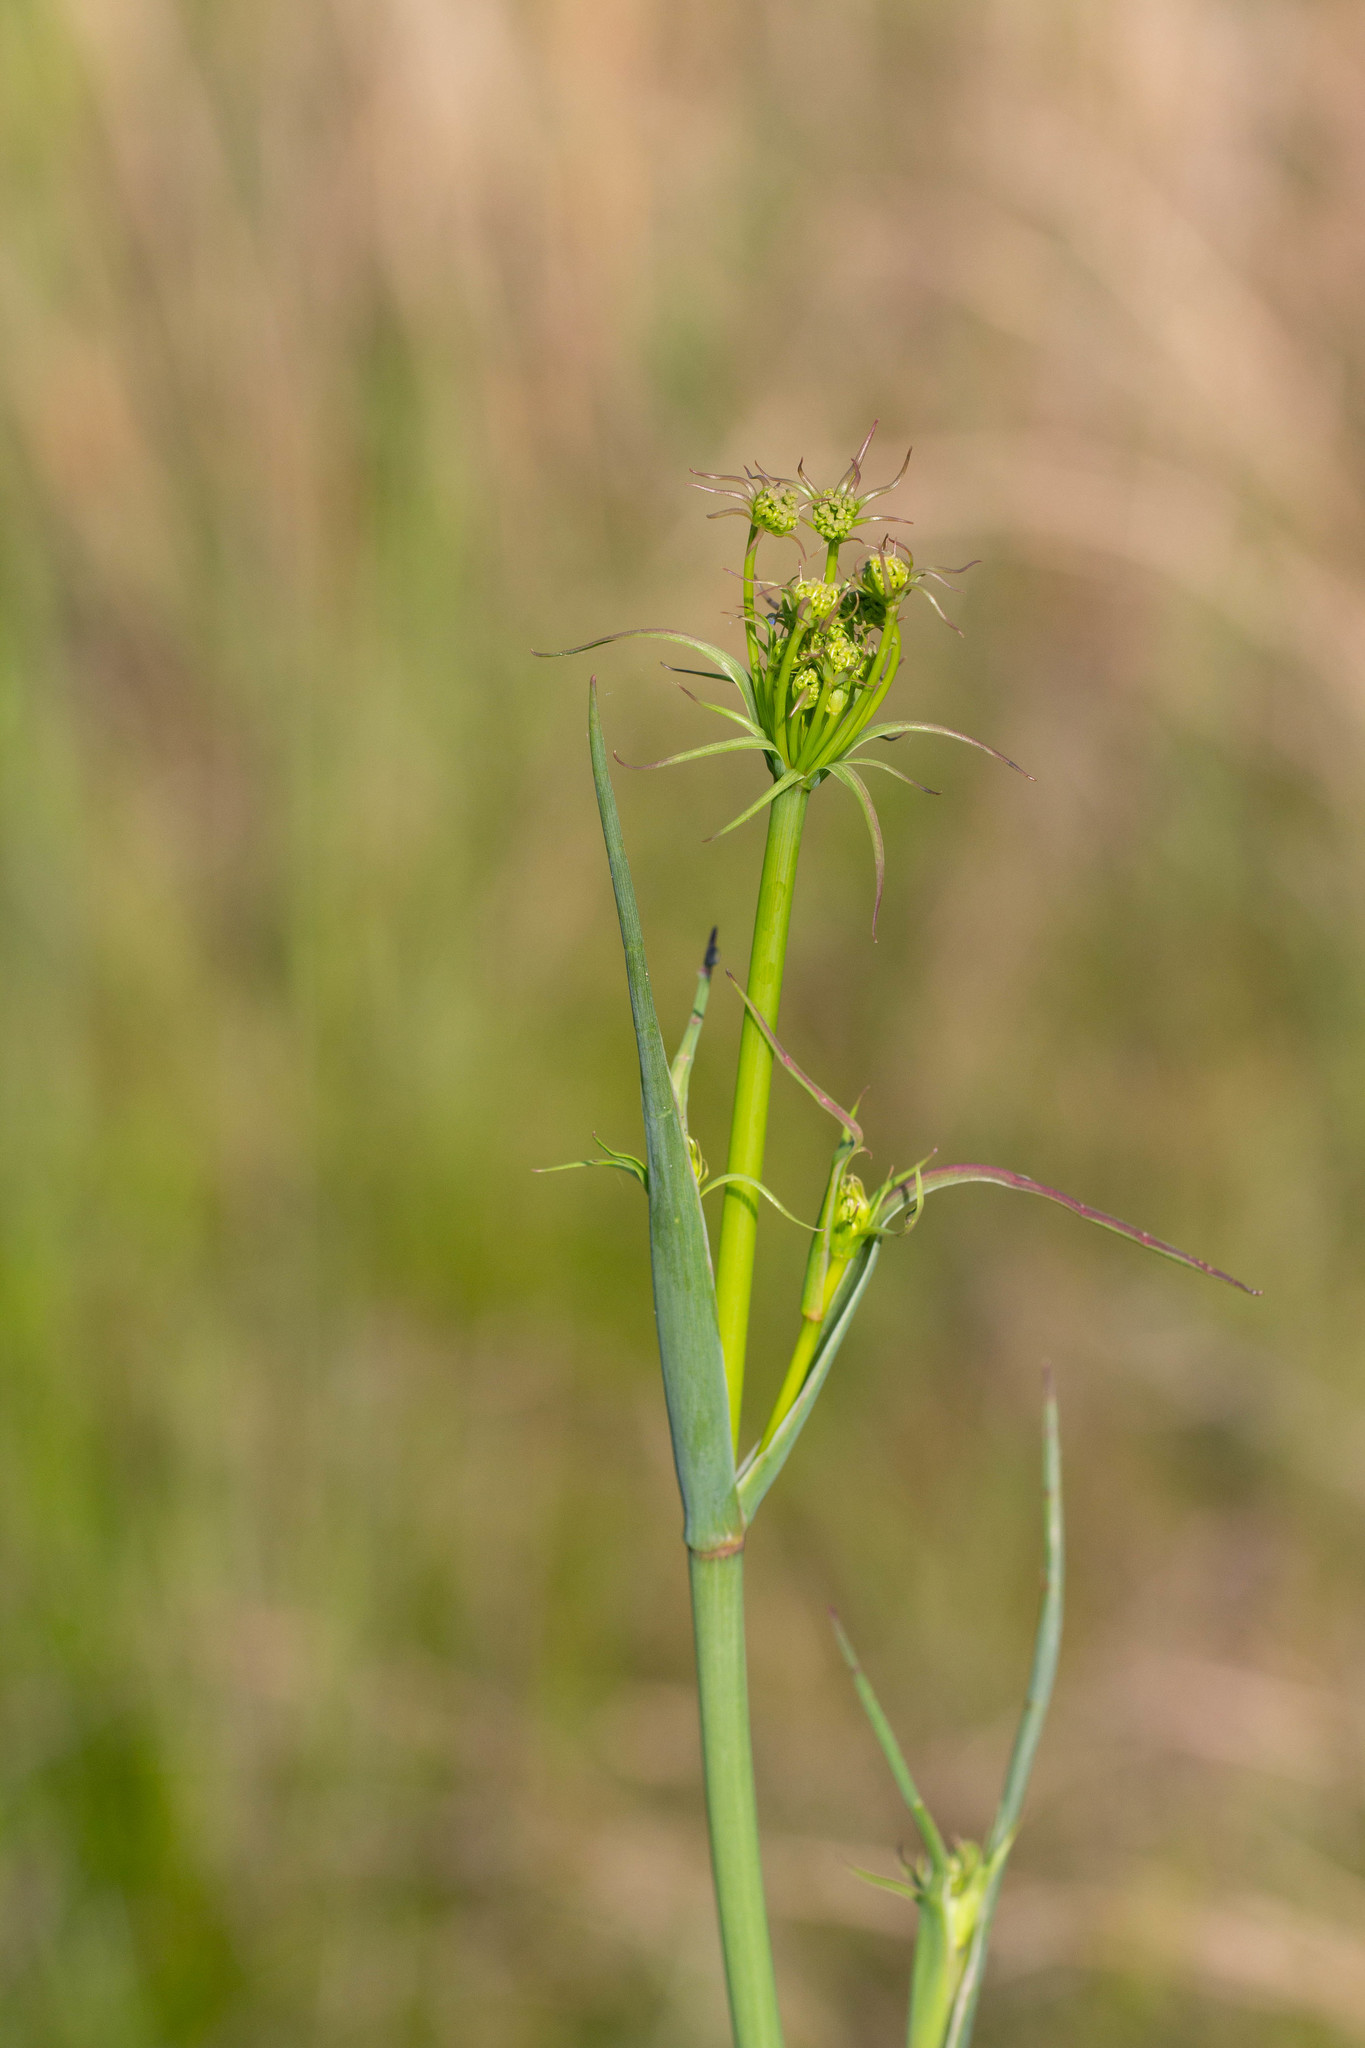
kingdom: Plantae
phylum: Tracheophyta
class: Magnoliopsida
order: Apiales
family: Apiaceae
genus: Tiedemannia
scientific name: Tiedemannia filiformis
